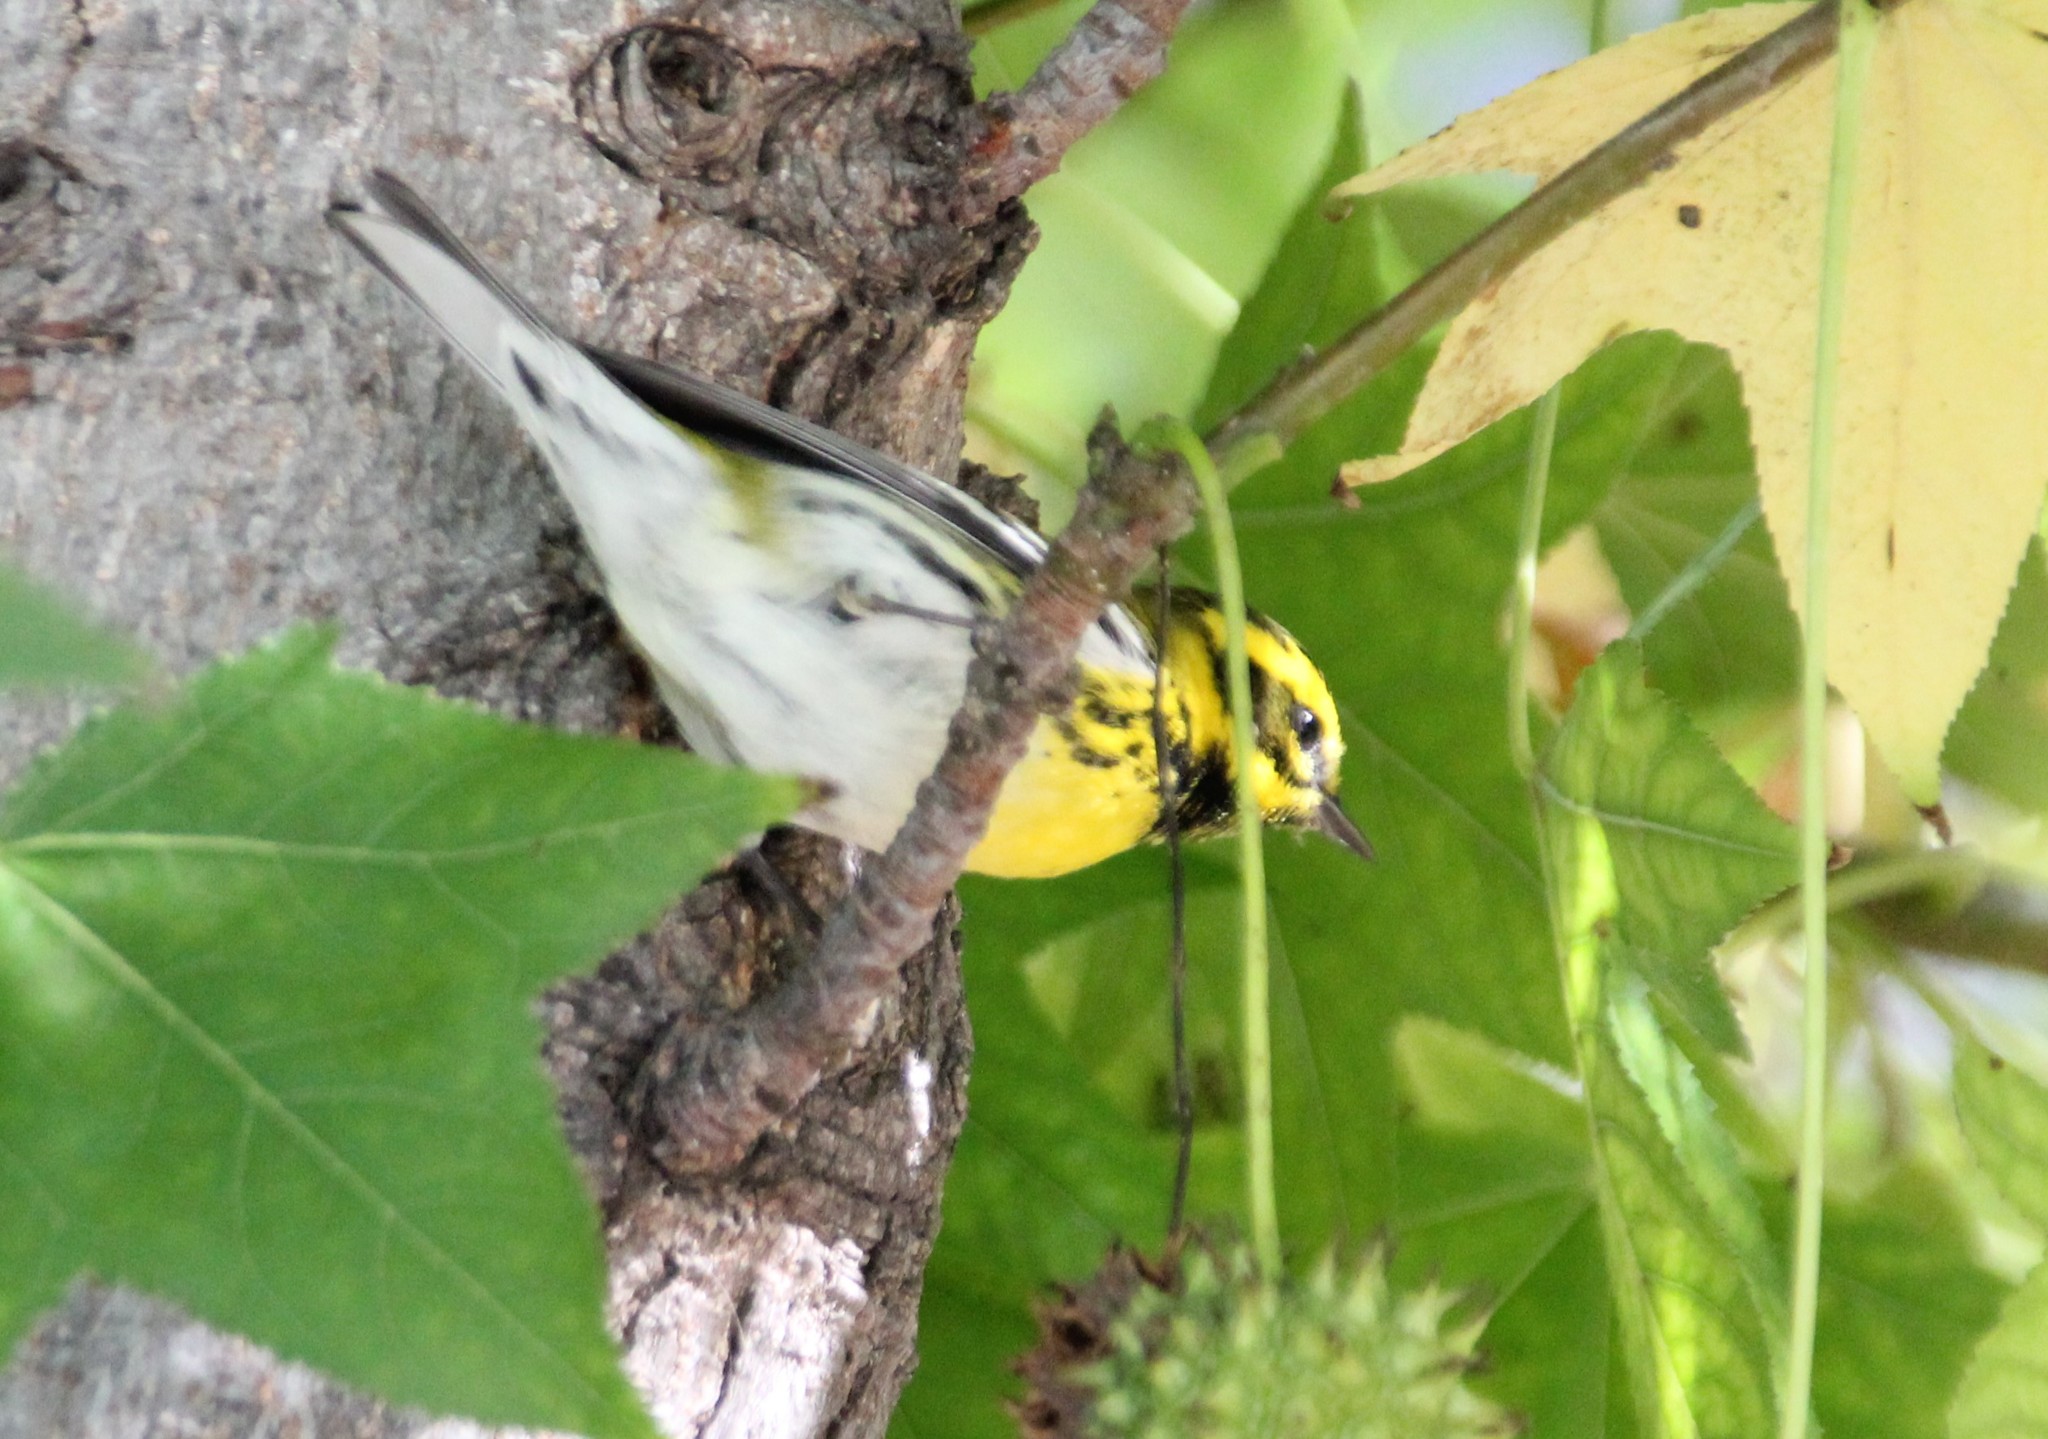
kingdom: Animalia
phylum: Chordata
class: Aves
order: Passeriformes
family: Parulidae
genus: Setophaga
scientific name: Setophaga townsendi
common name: Townsend's warbler
